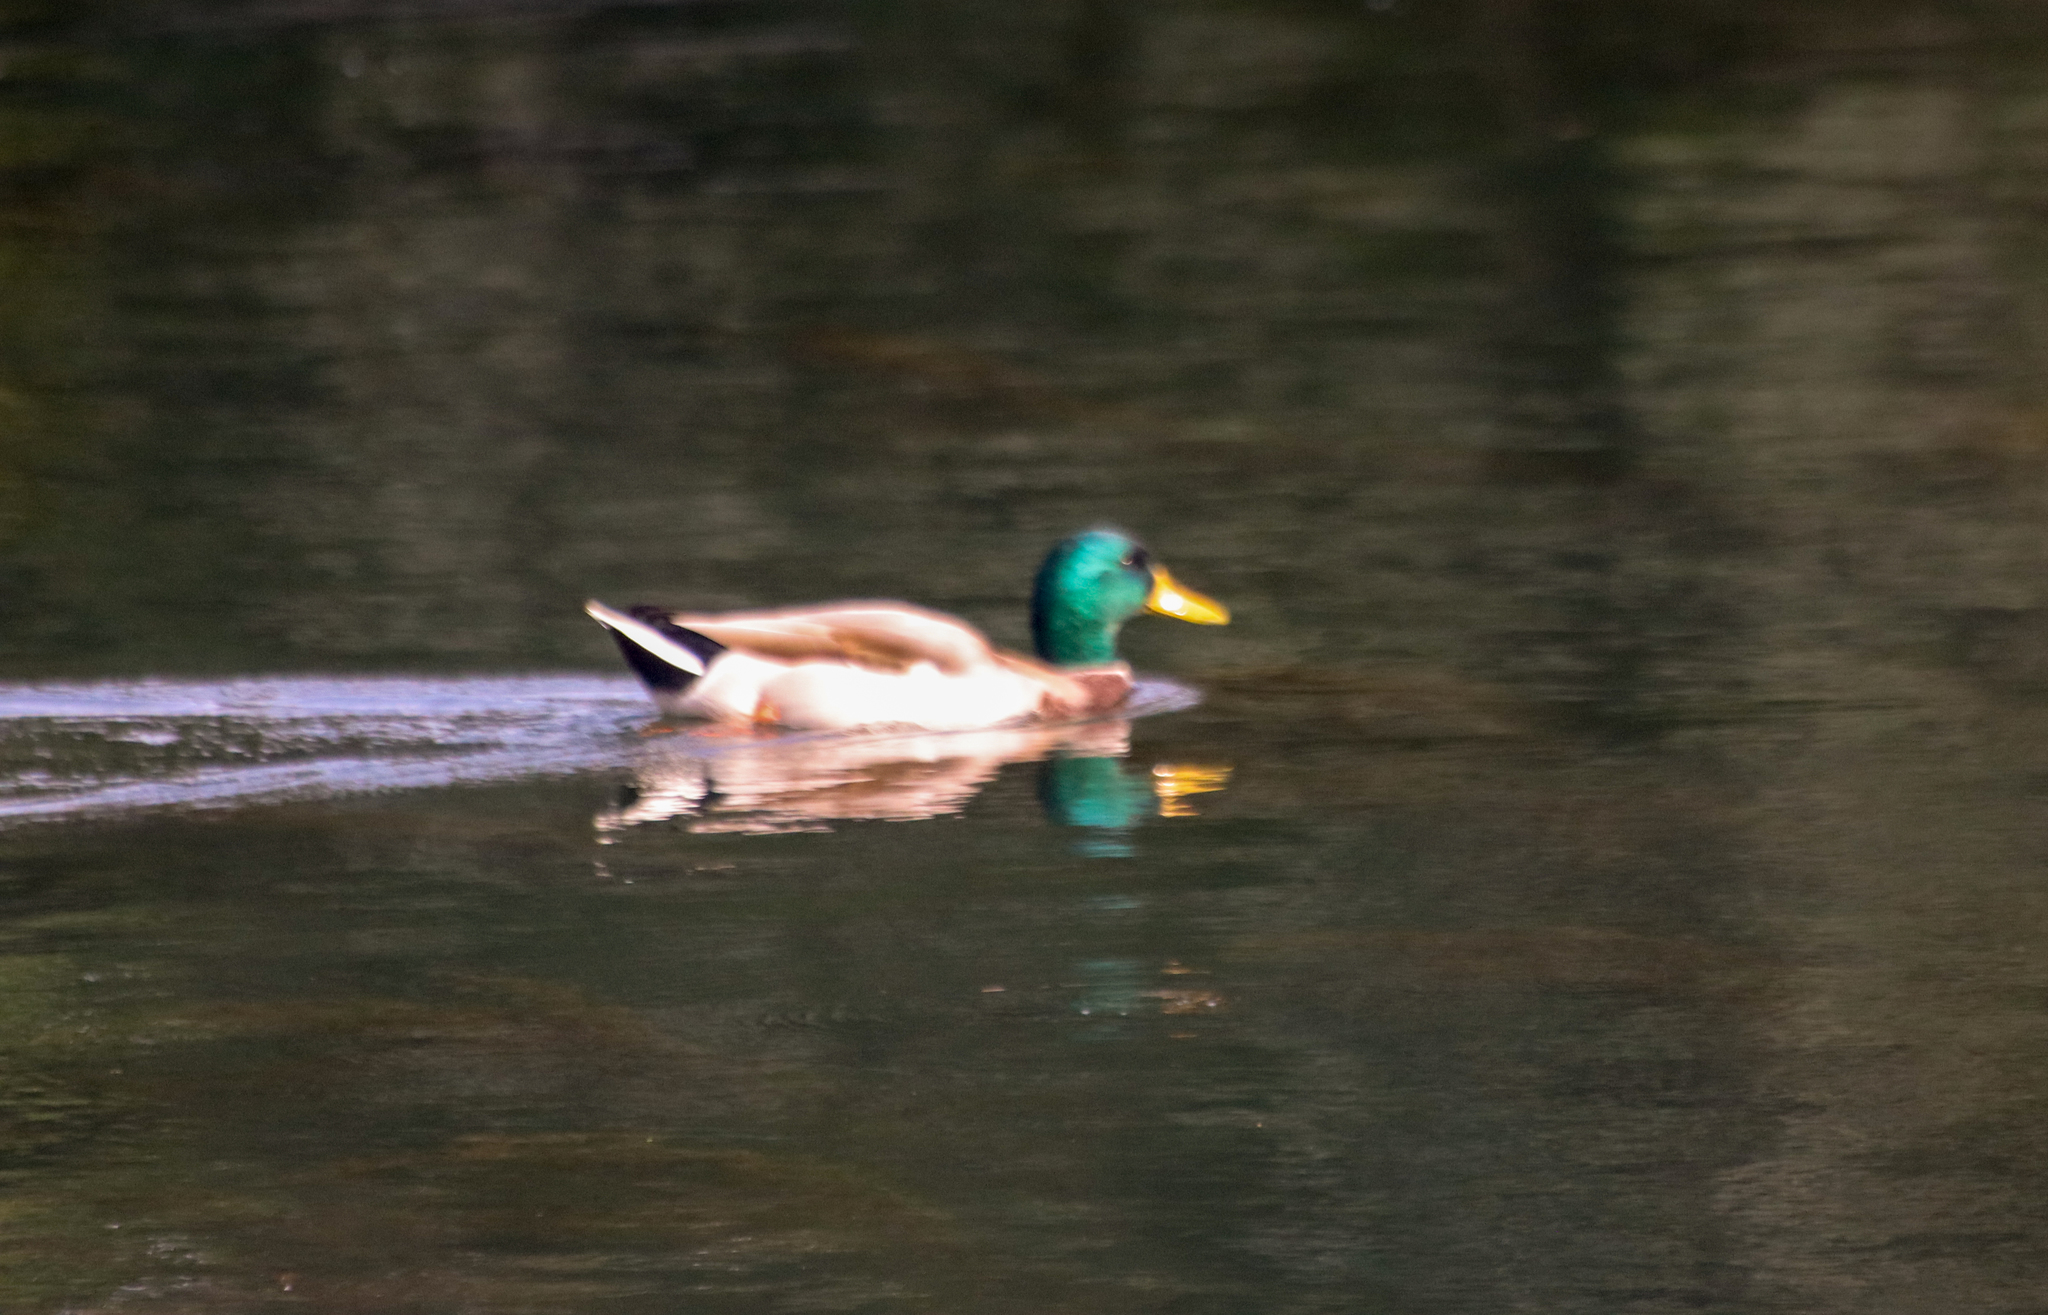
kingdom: Animalia
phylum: Chordata
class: Aves
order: Anseriformes
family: Anatidae
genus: Anas
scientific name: Anas platyrhynchos
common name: Mallard
